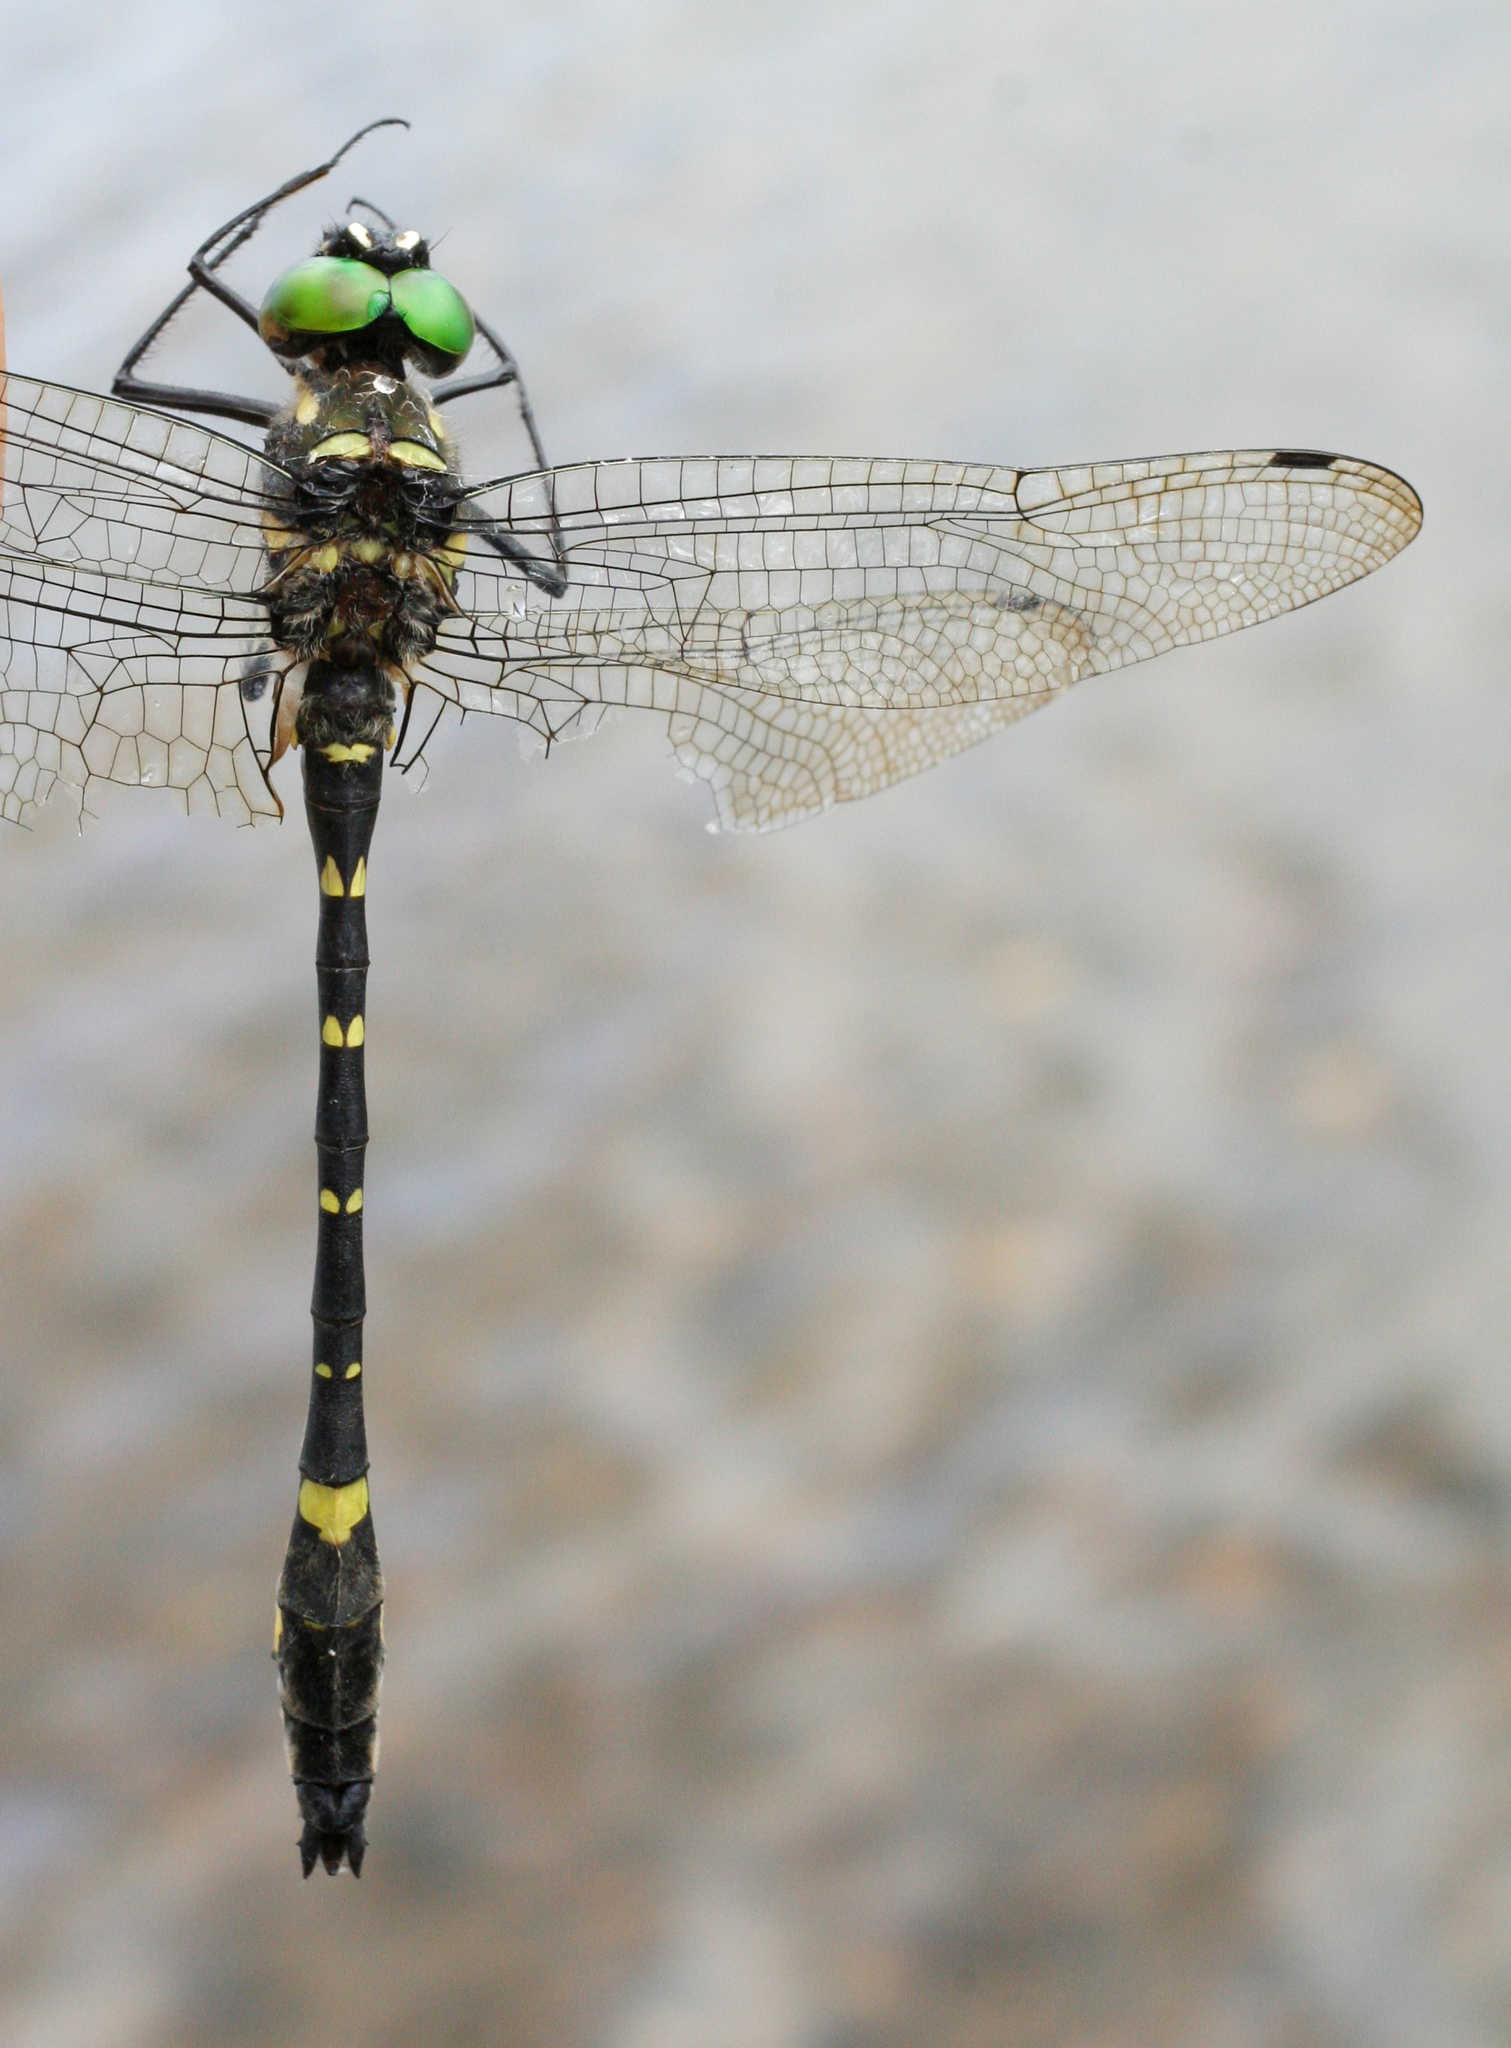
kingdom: Animalia
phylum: Arthropoda
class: Insecta
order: Odonata
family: Macromiidae
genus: Macromia
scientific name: Macromia daimoji
